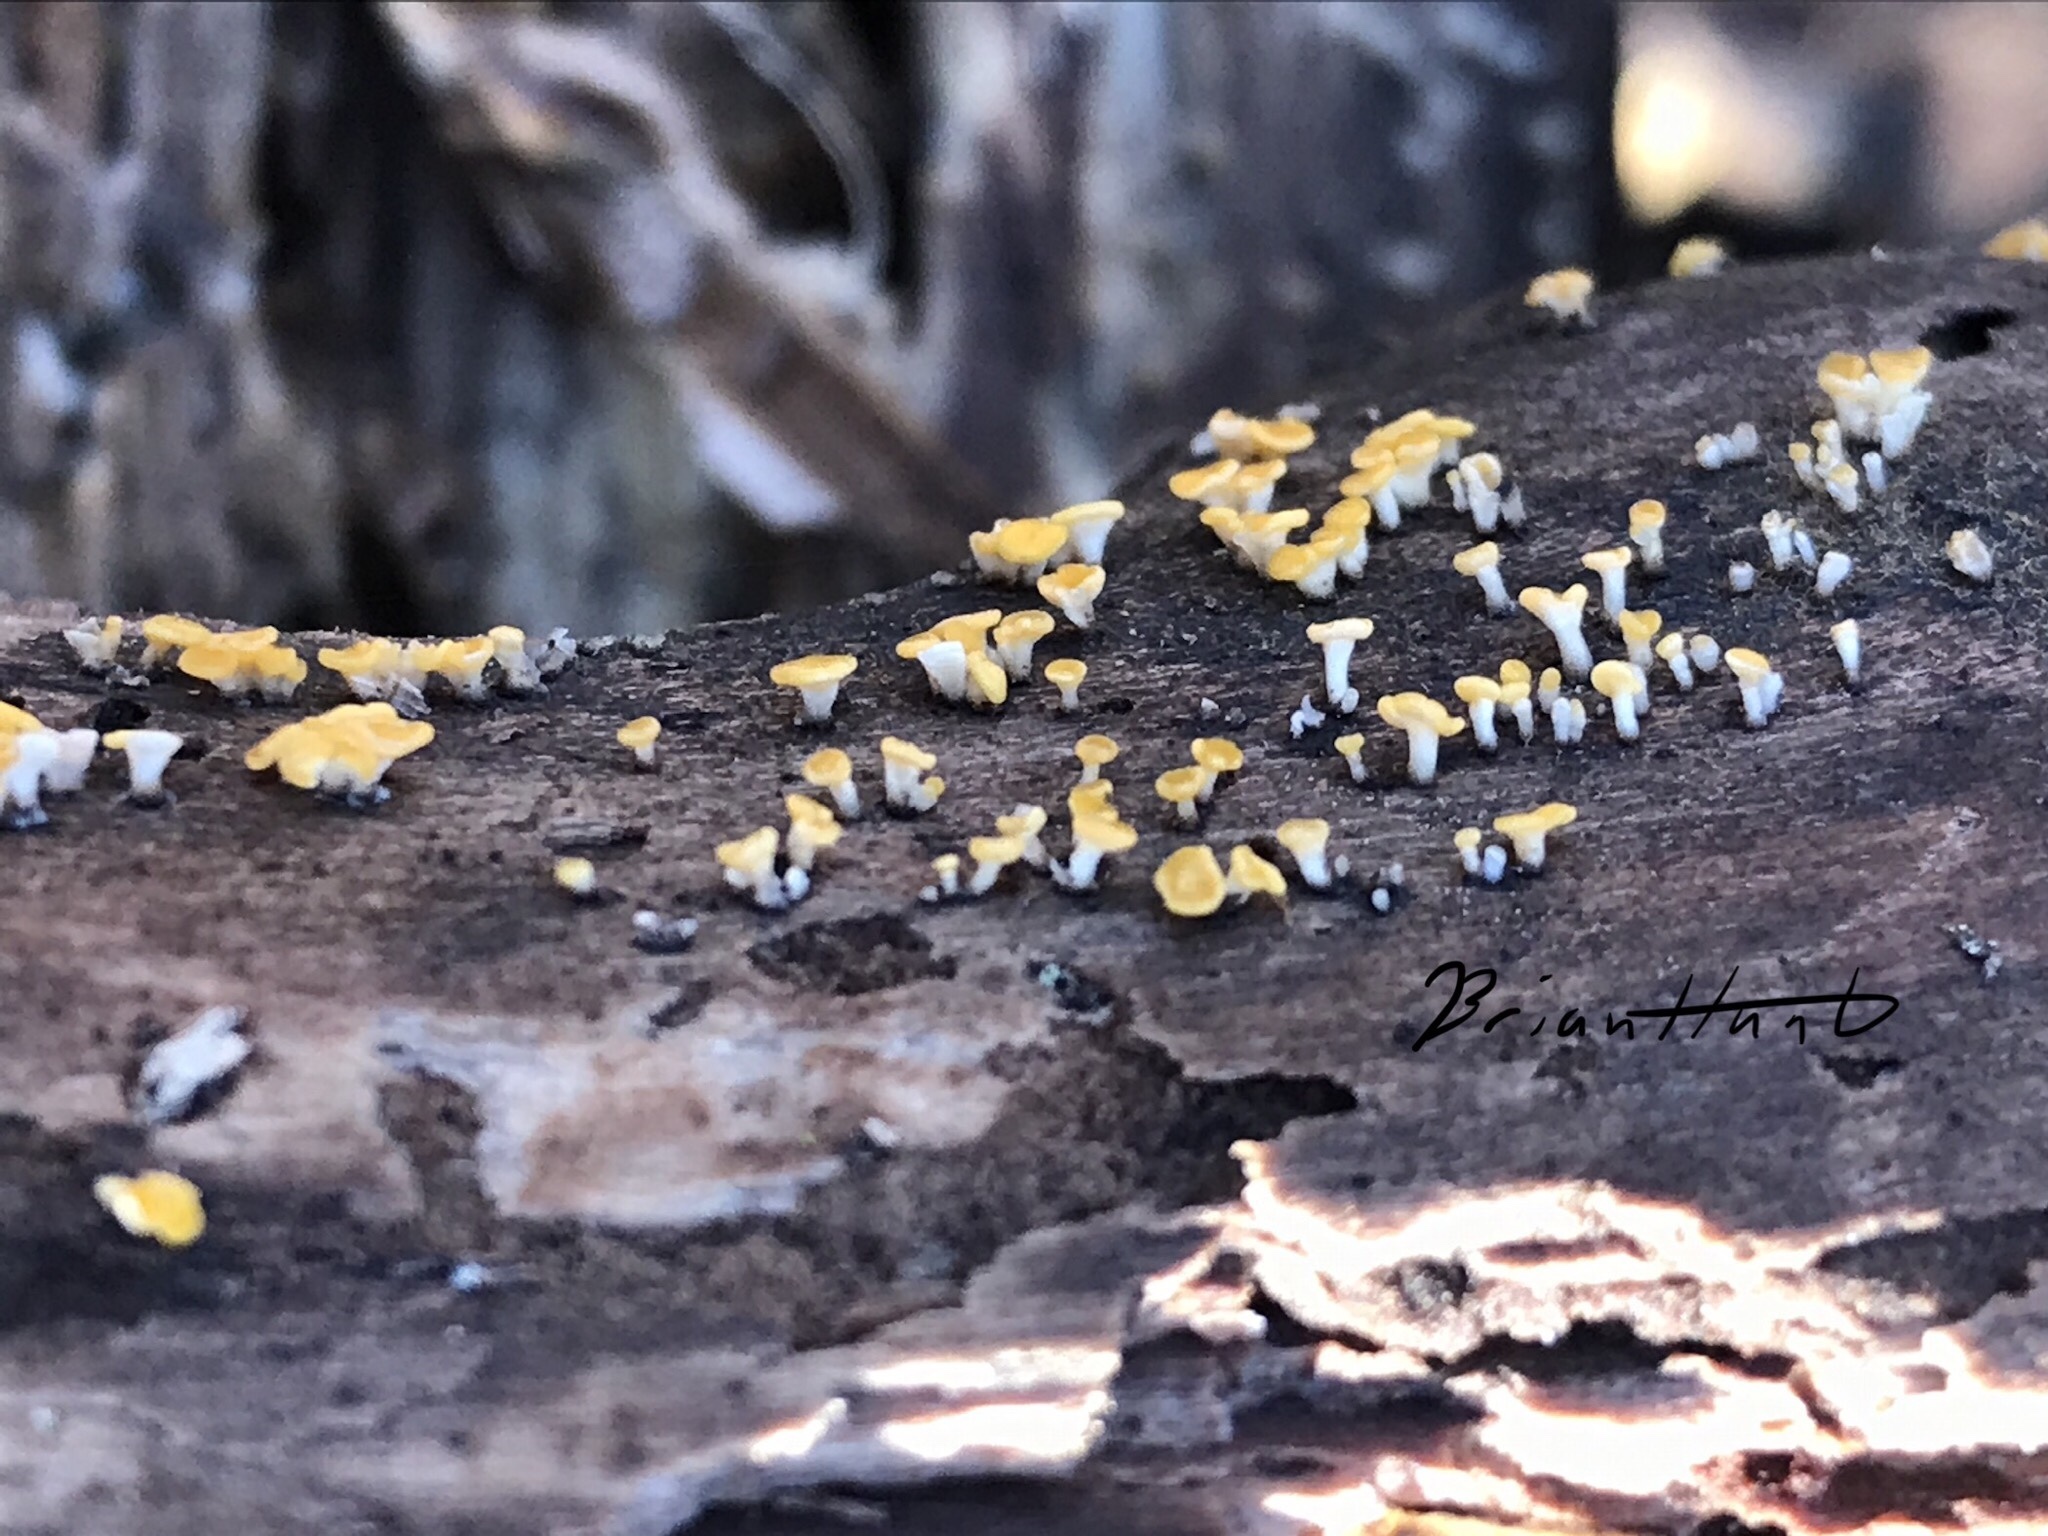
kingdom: Fungi
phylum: Basidiomycota
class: Dacrymycetes
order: Dacrymycetales
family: Dacrymycetaceae
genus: Ditiola
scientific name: Ditiola radicata
